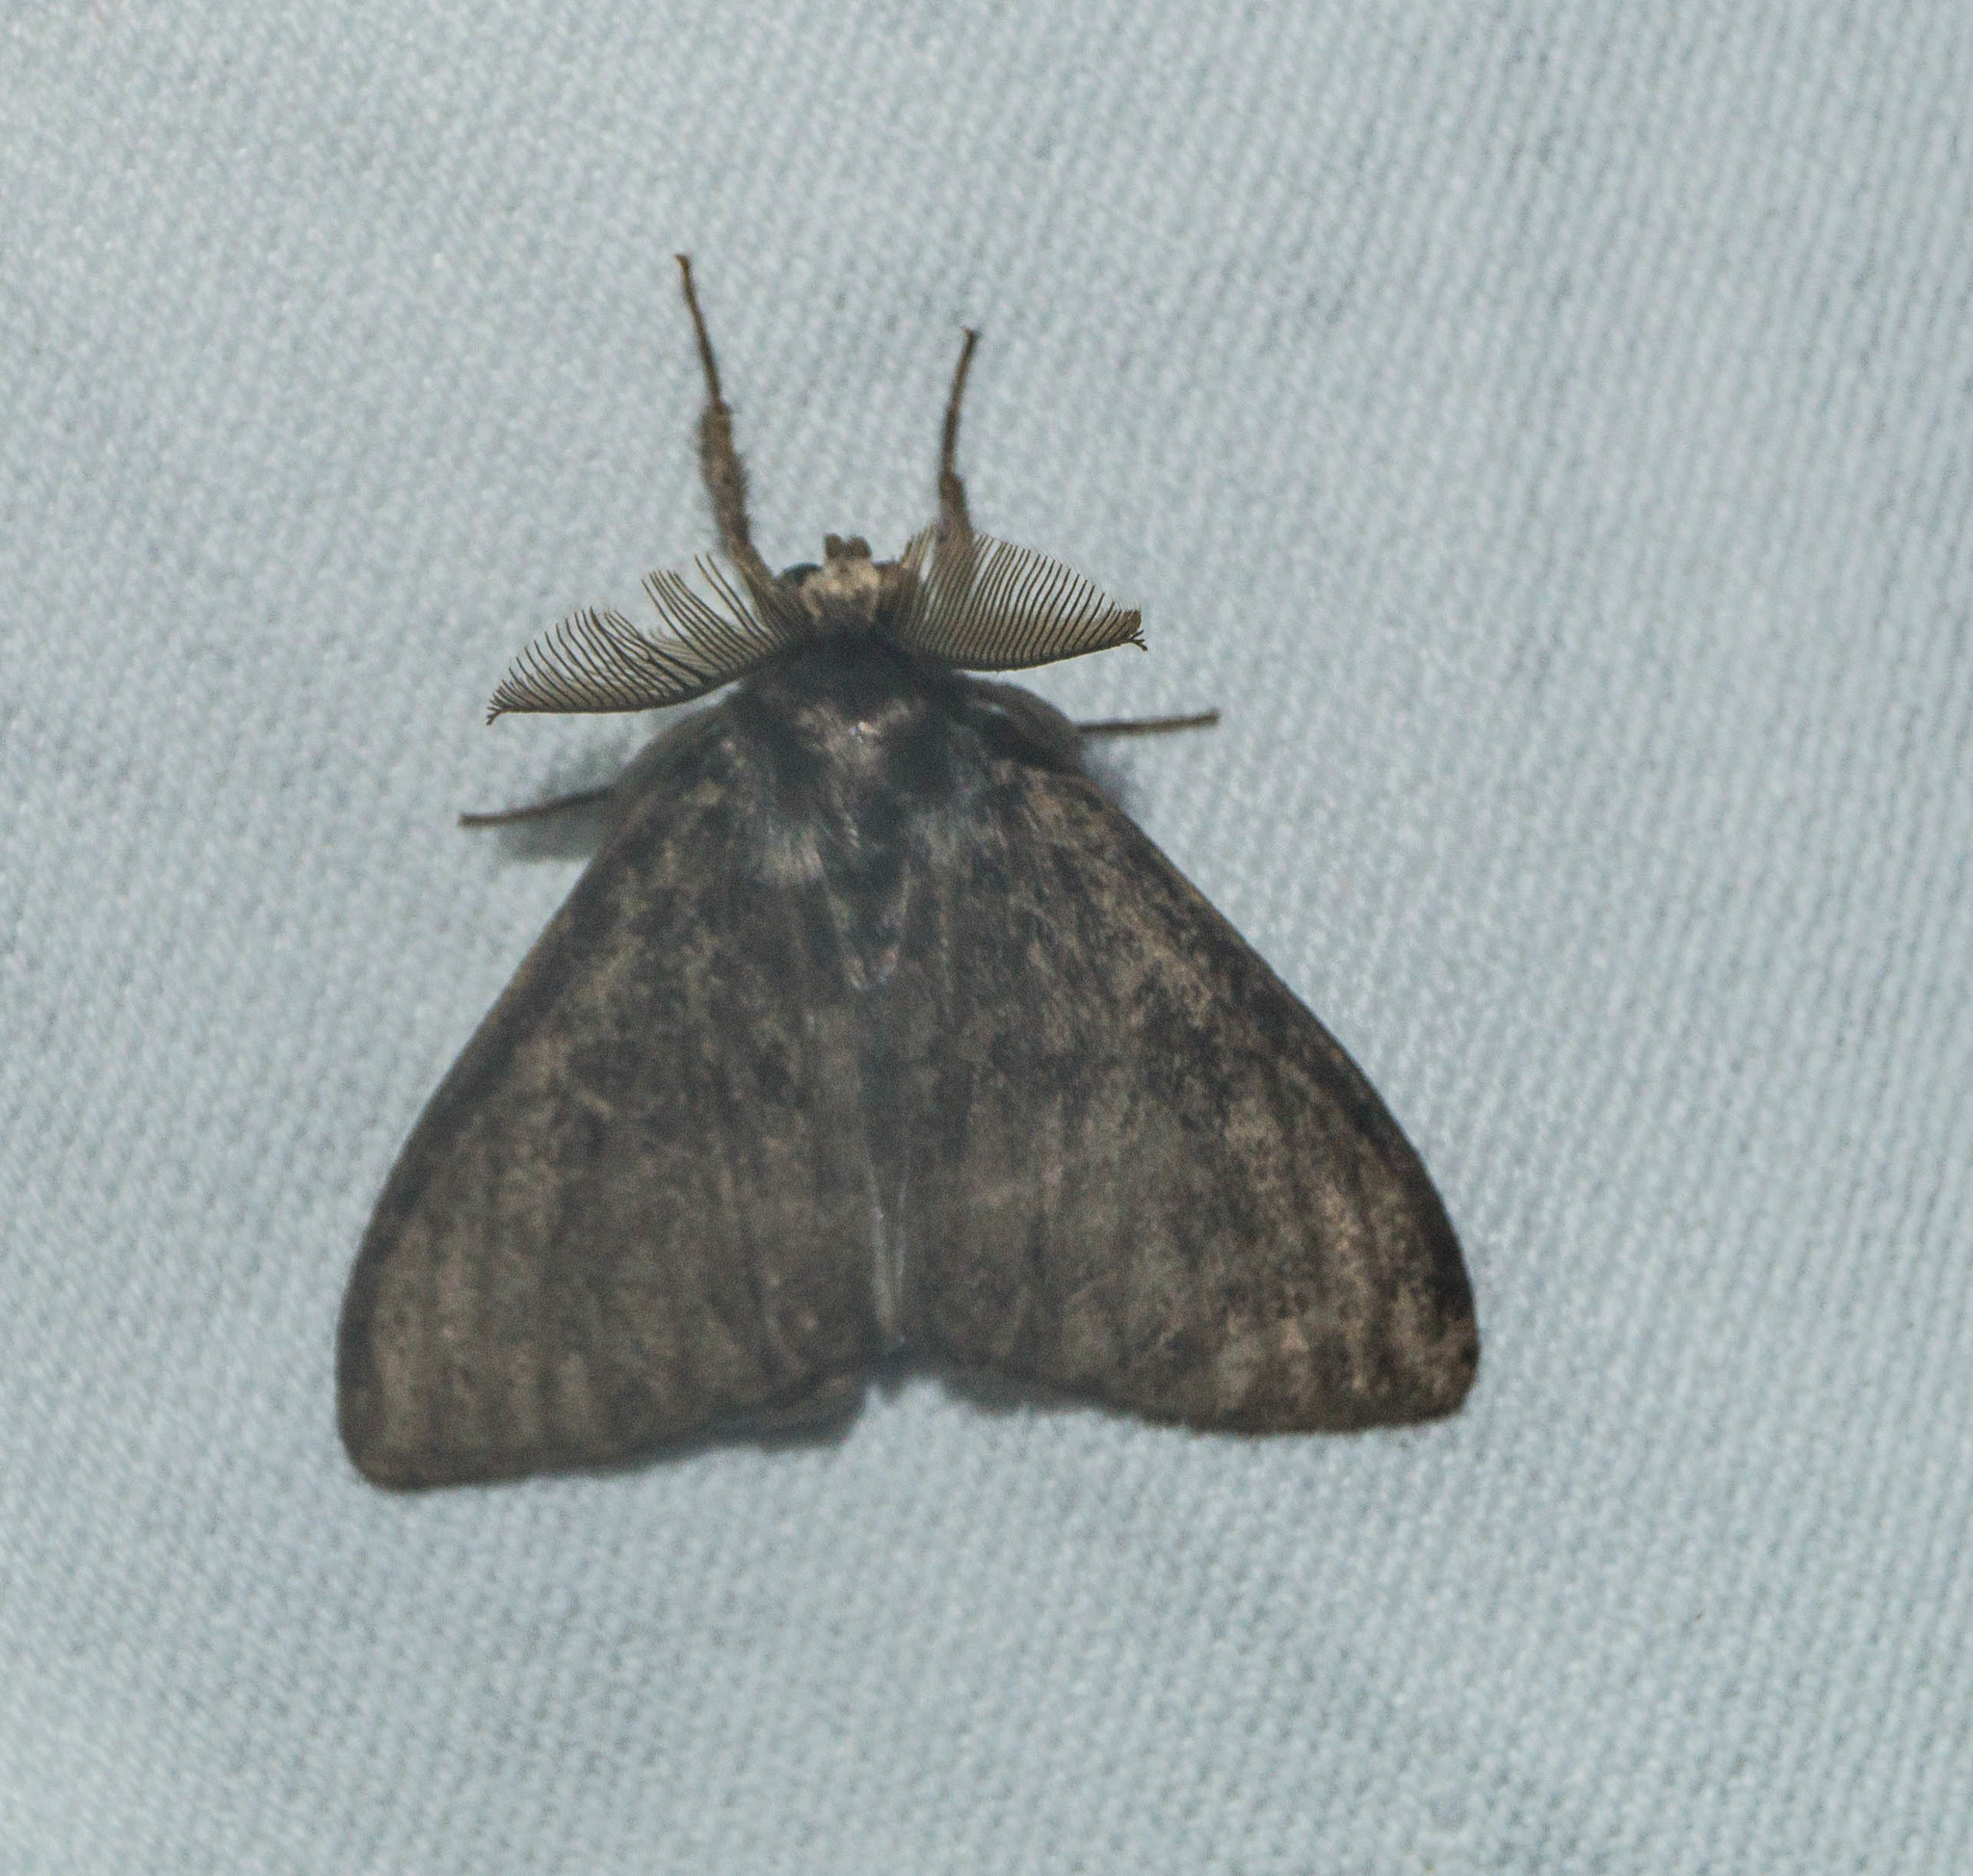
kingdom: Animalia
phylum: Arthropoda
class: Insecta
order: Lepidoptera
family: Erebidae
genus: Lymantria
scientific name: Lymantria monacha
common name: Black arches
